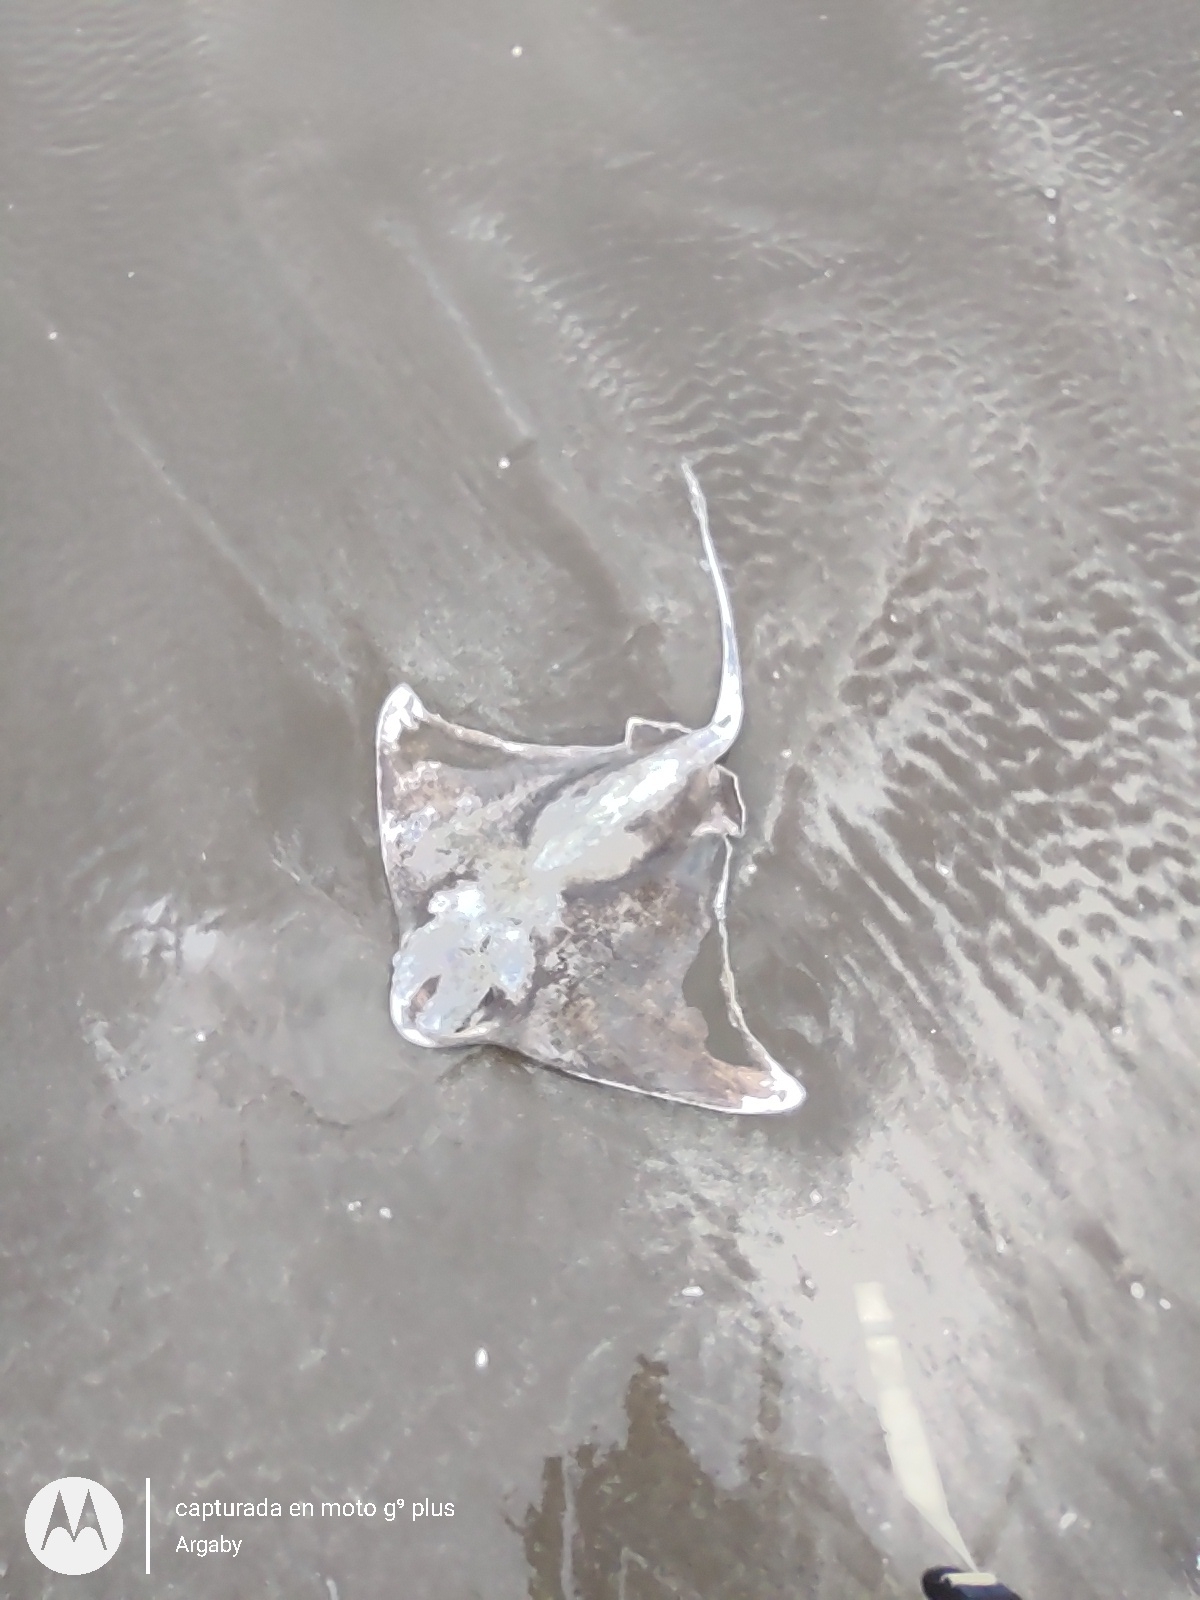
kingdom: Animalia
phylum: Chordata
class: Elasmobranchii
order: Myliobatiformes
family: Myliobatidae
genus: Myliobatis
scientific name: Myliobatis ridens
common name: Shortnose eagle ray
